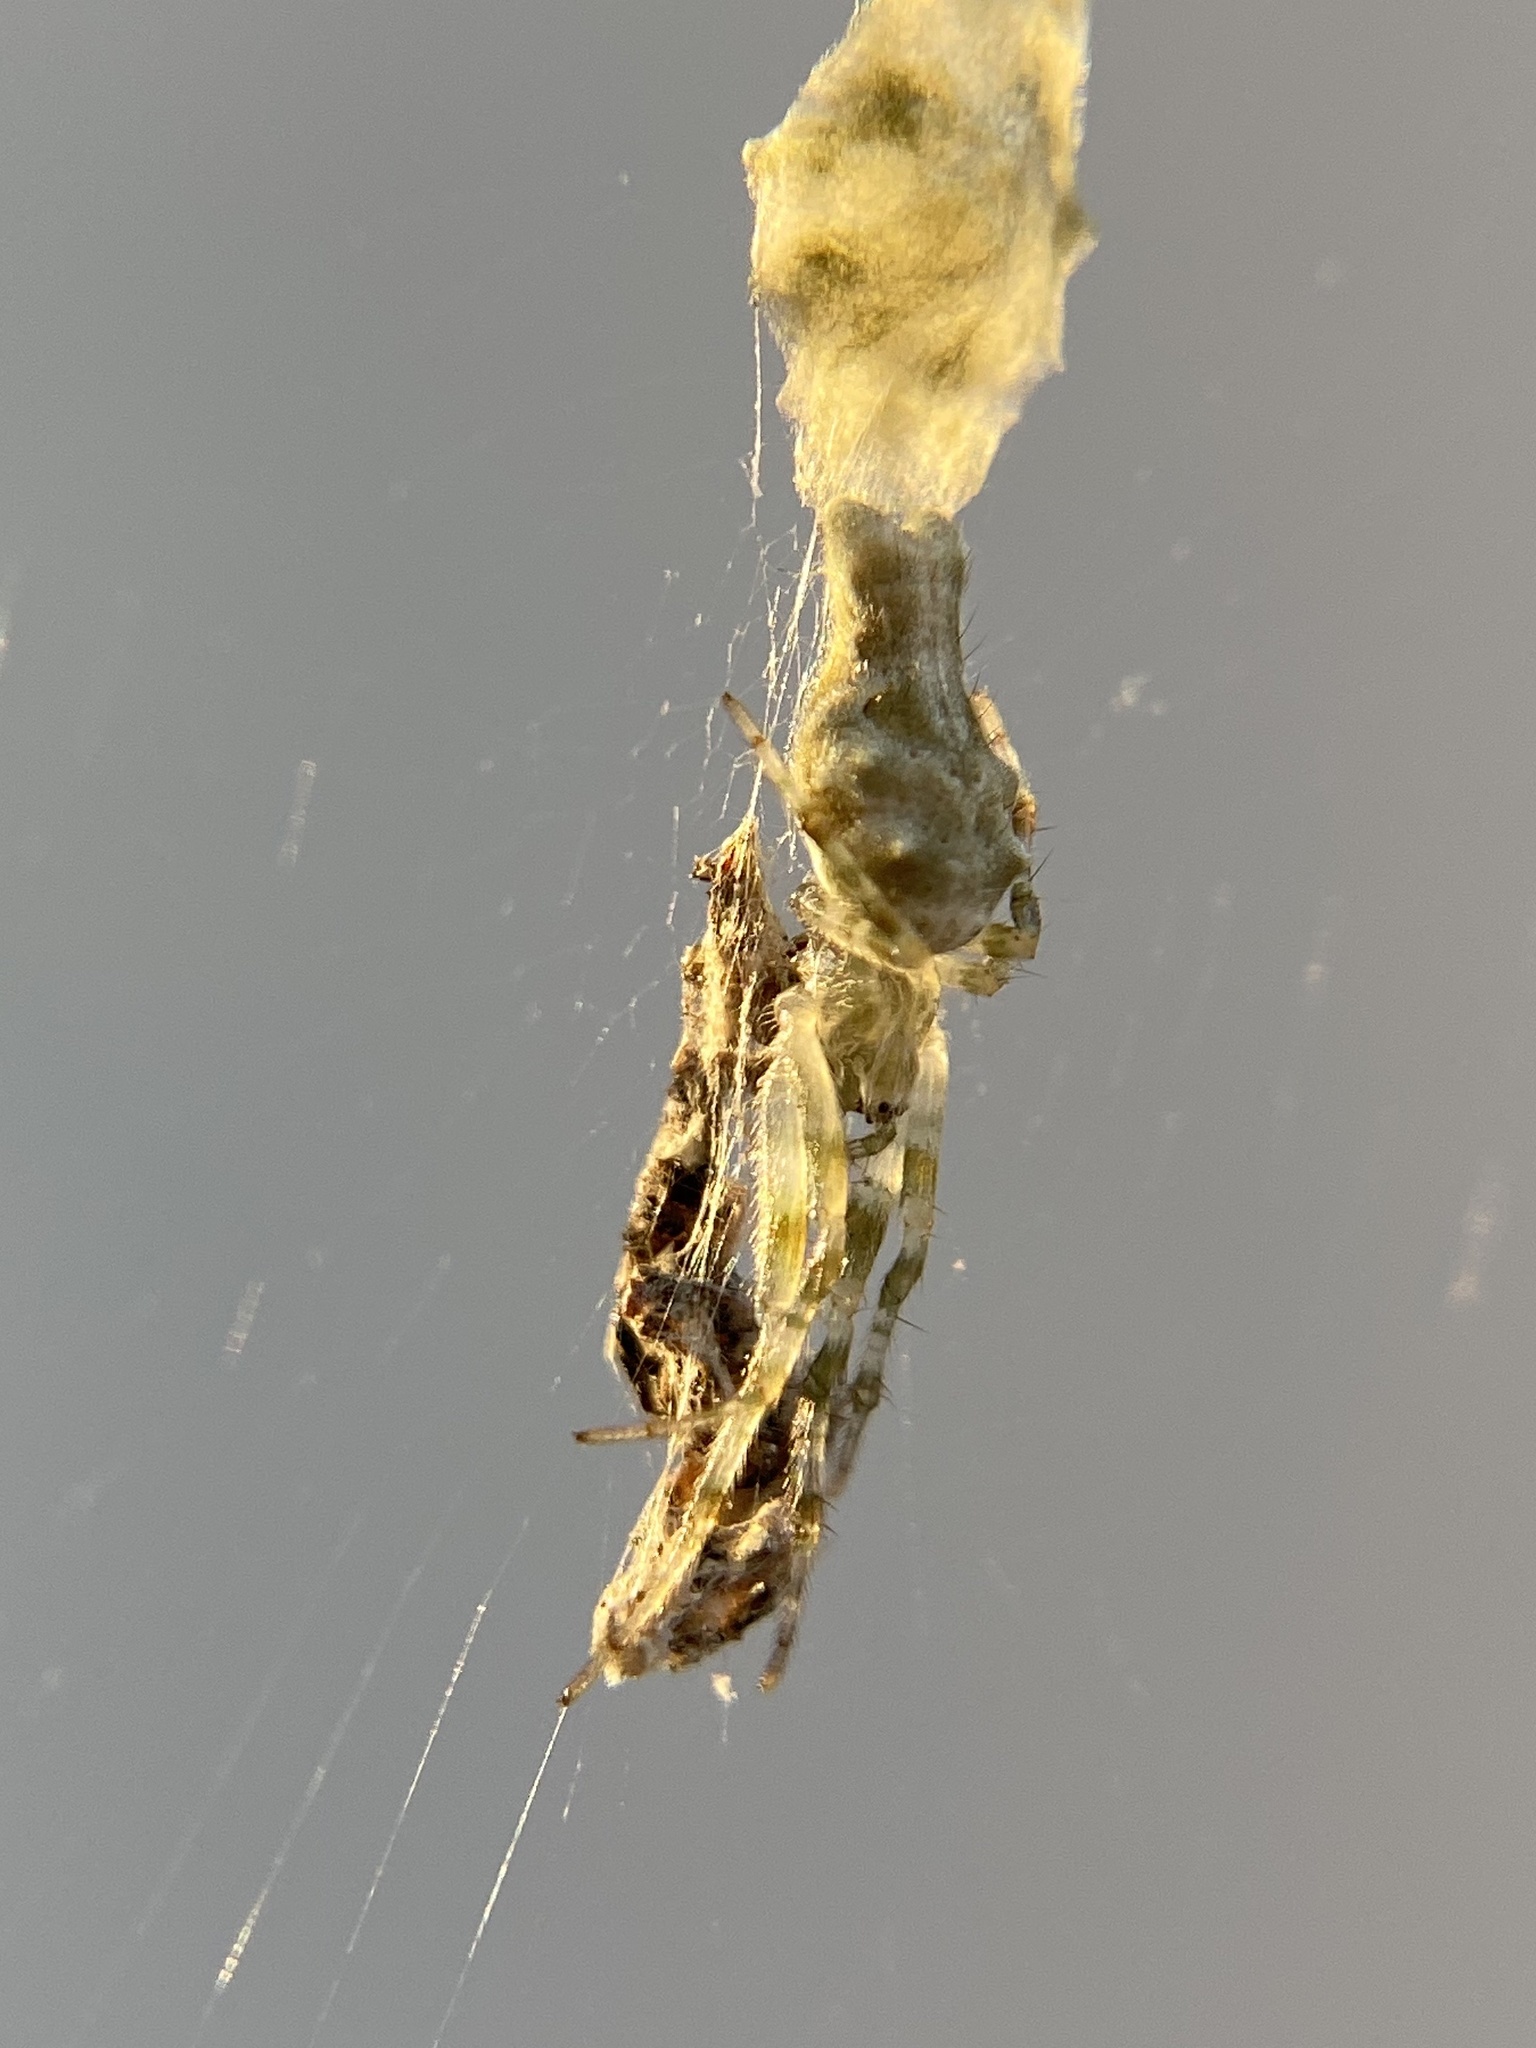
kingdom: Animalia
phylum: Arthropoda
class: Arachnida
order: Araneae
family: Araneidae
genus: Allocyclosa
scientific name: Allocyclosa bifurca
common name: Orb weavers
